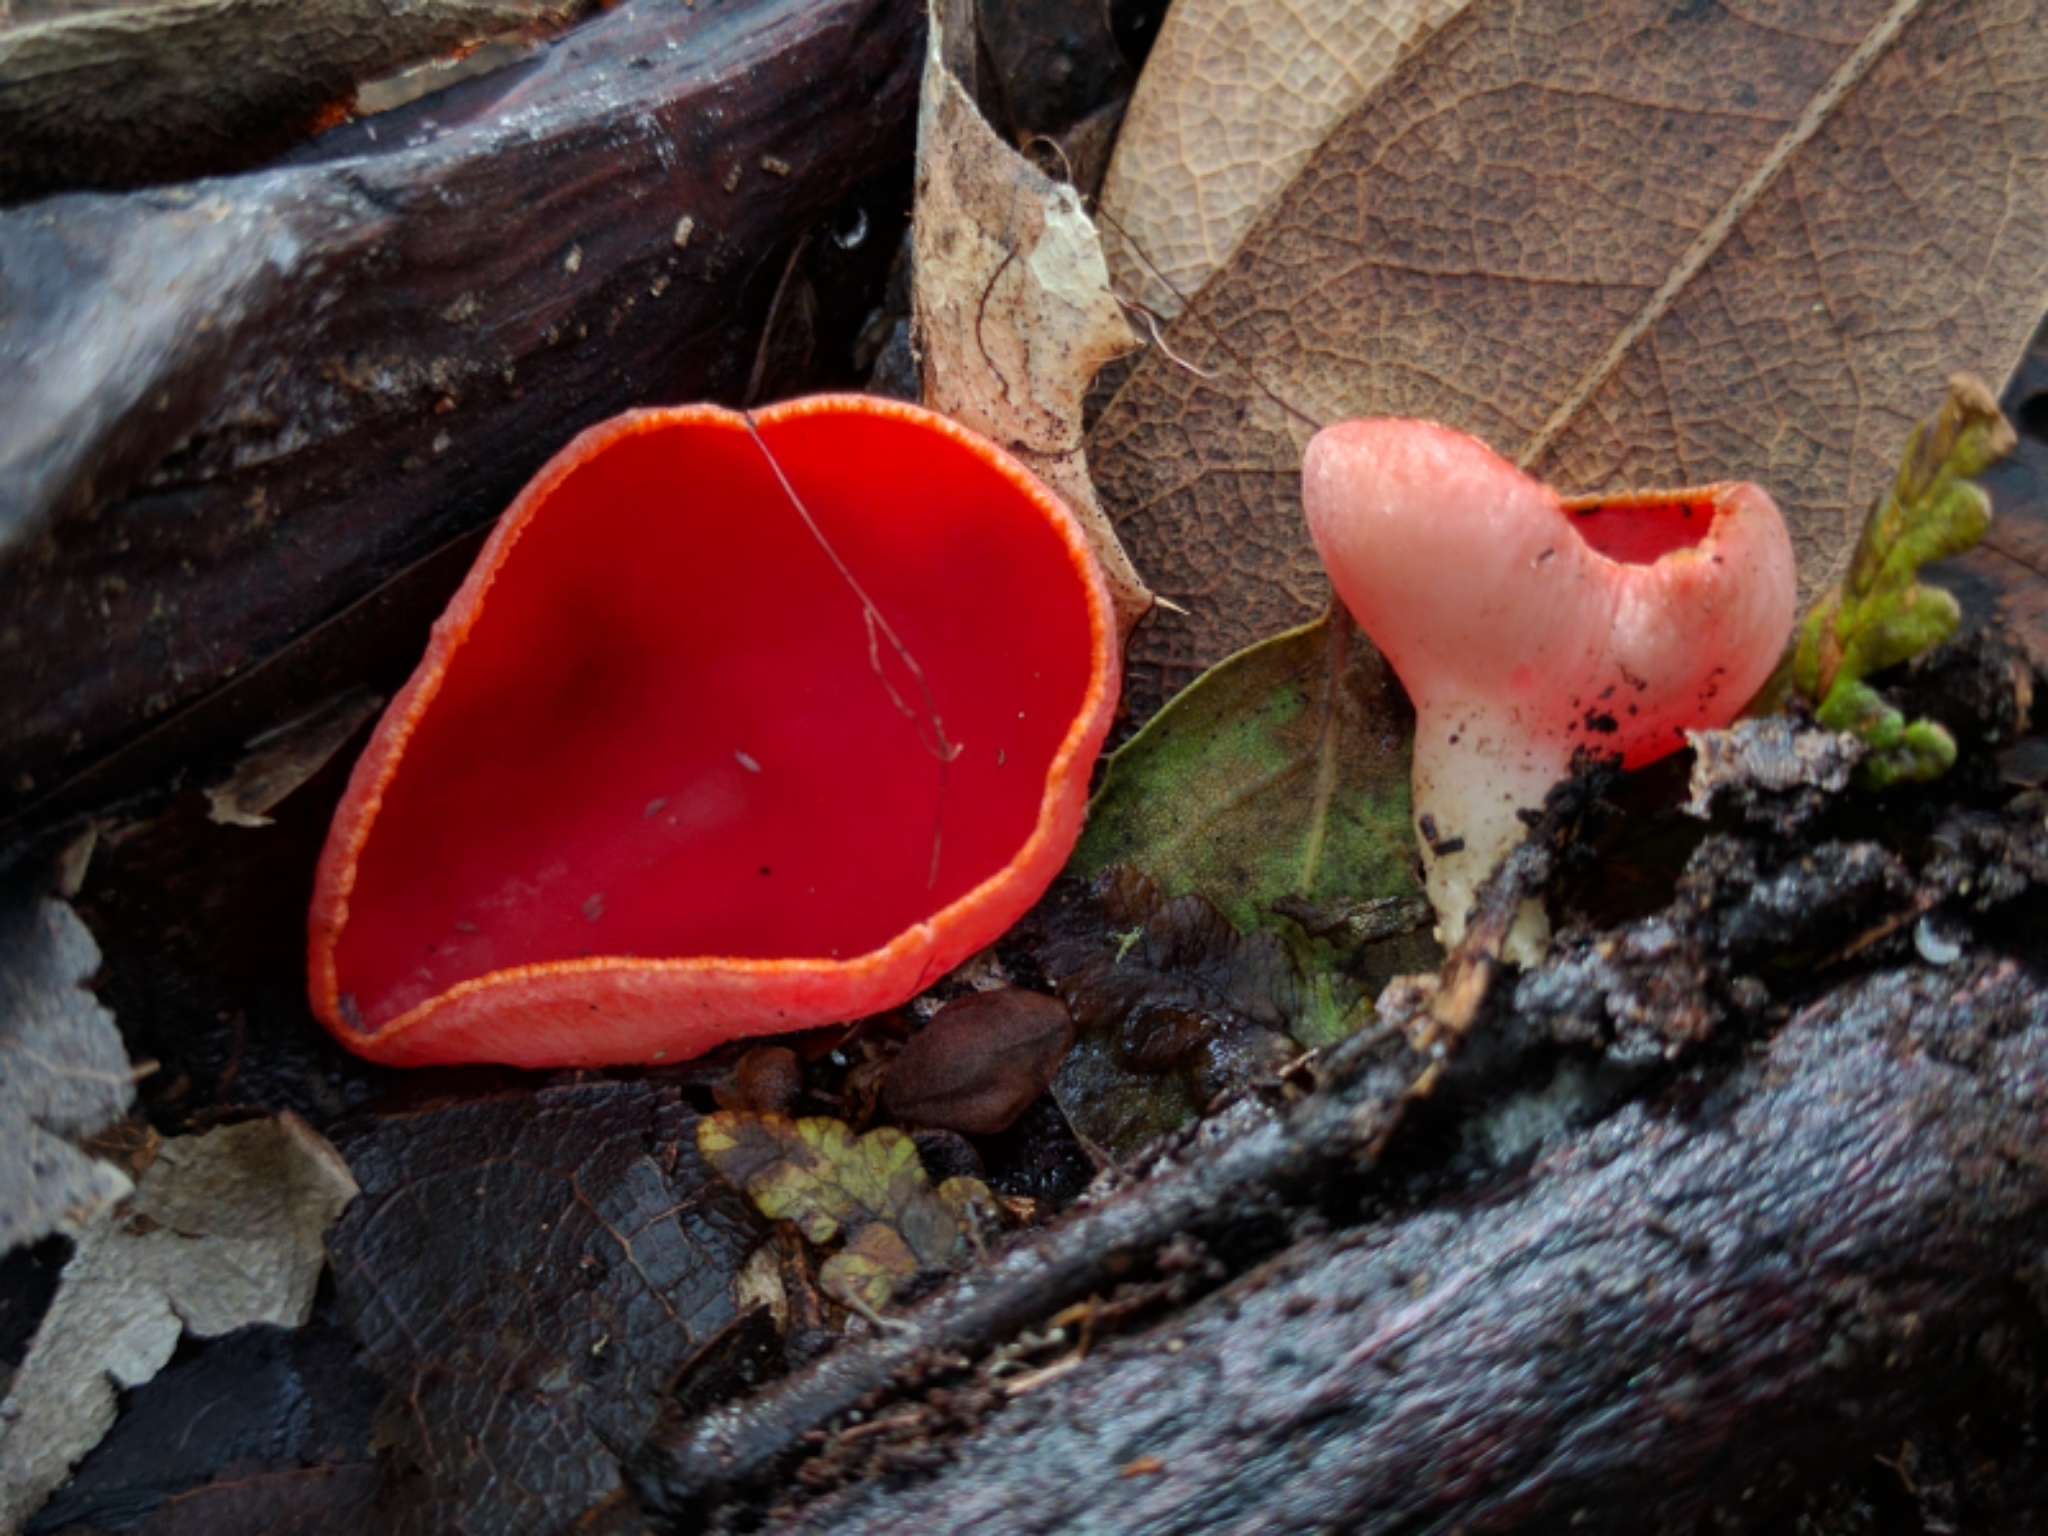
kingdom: Fungi
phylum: Ascomycota
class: Pezizomycetes
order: Pezizales
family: Sarcoscyphaceae
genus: Sarcoscypha
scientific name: Sarcoscypha coccinea
